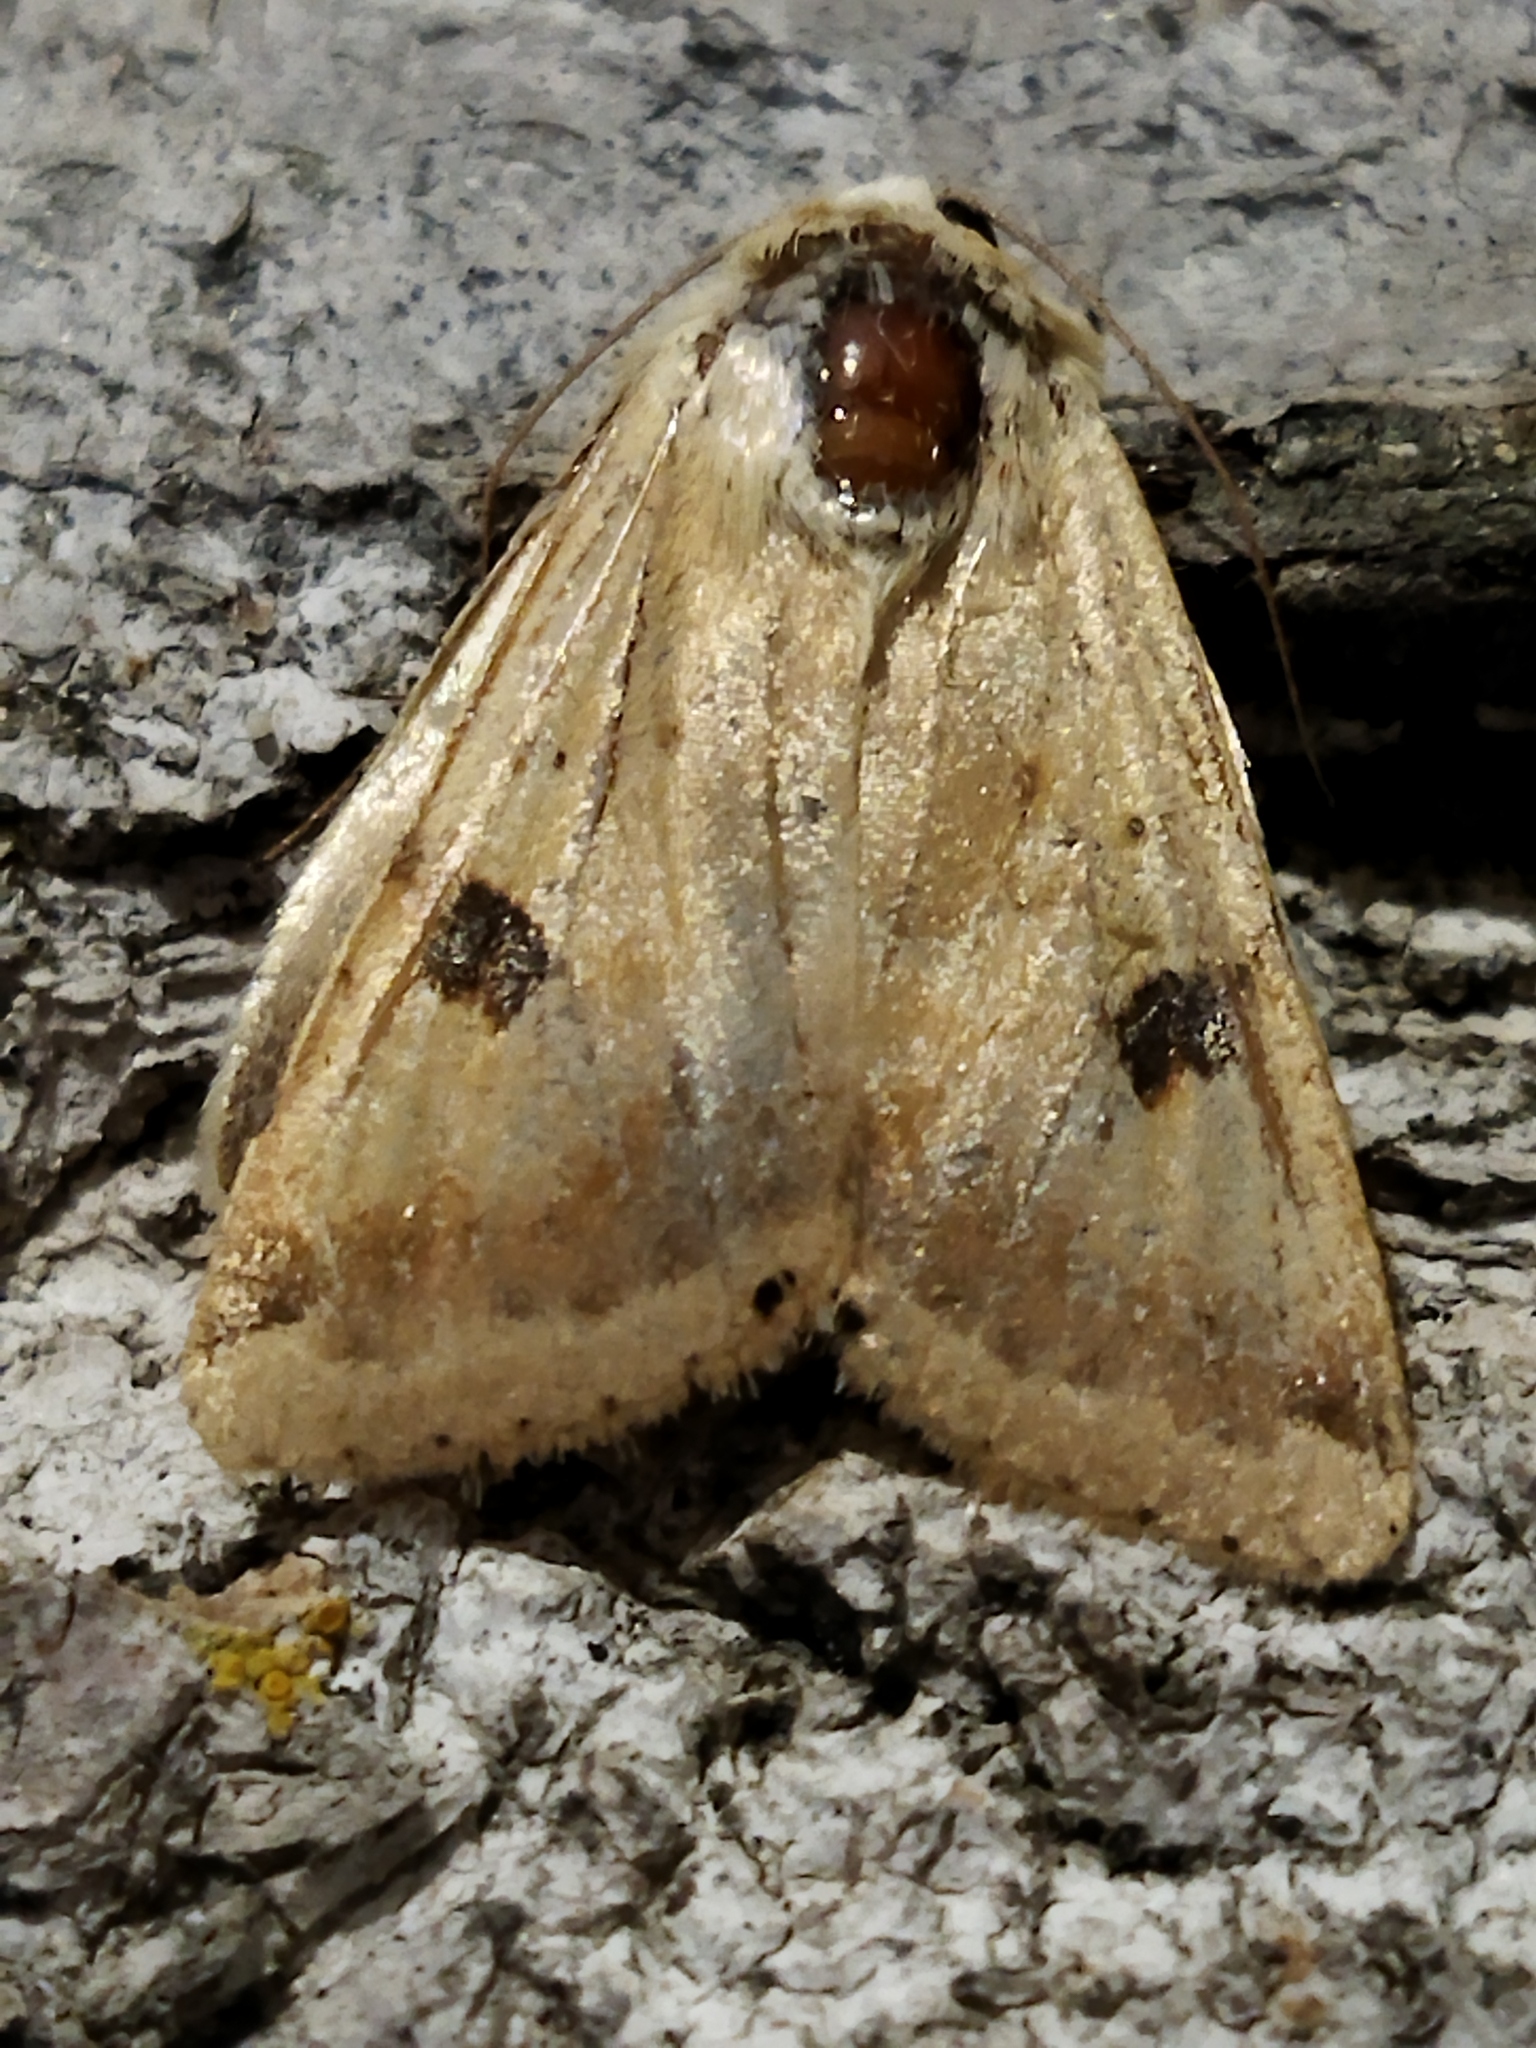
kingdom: Animalia
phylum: Arthropoda
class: Insecta
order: Lepidoptera
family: Noctuidae
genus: Heliothis
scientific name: Heliothis peltigera
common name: Bordered straw
